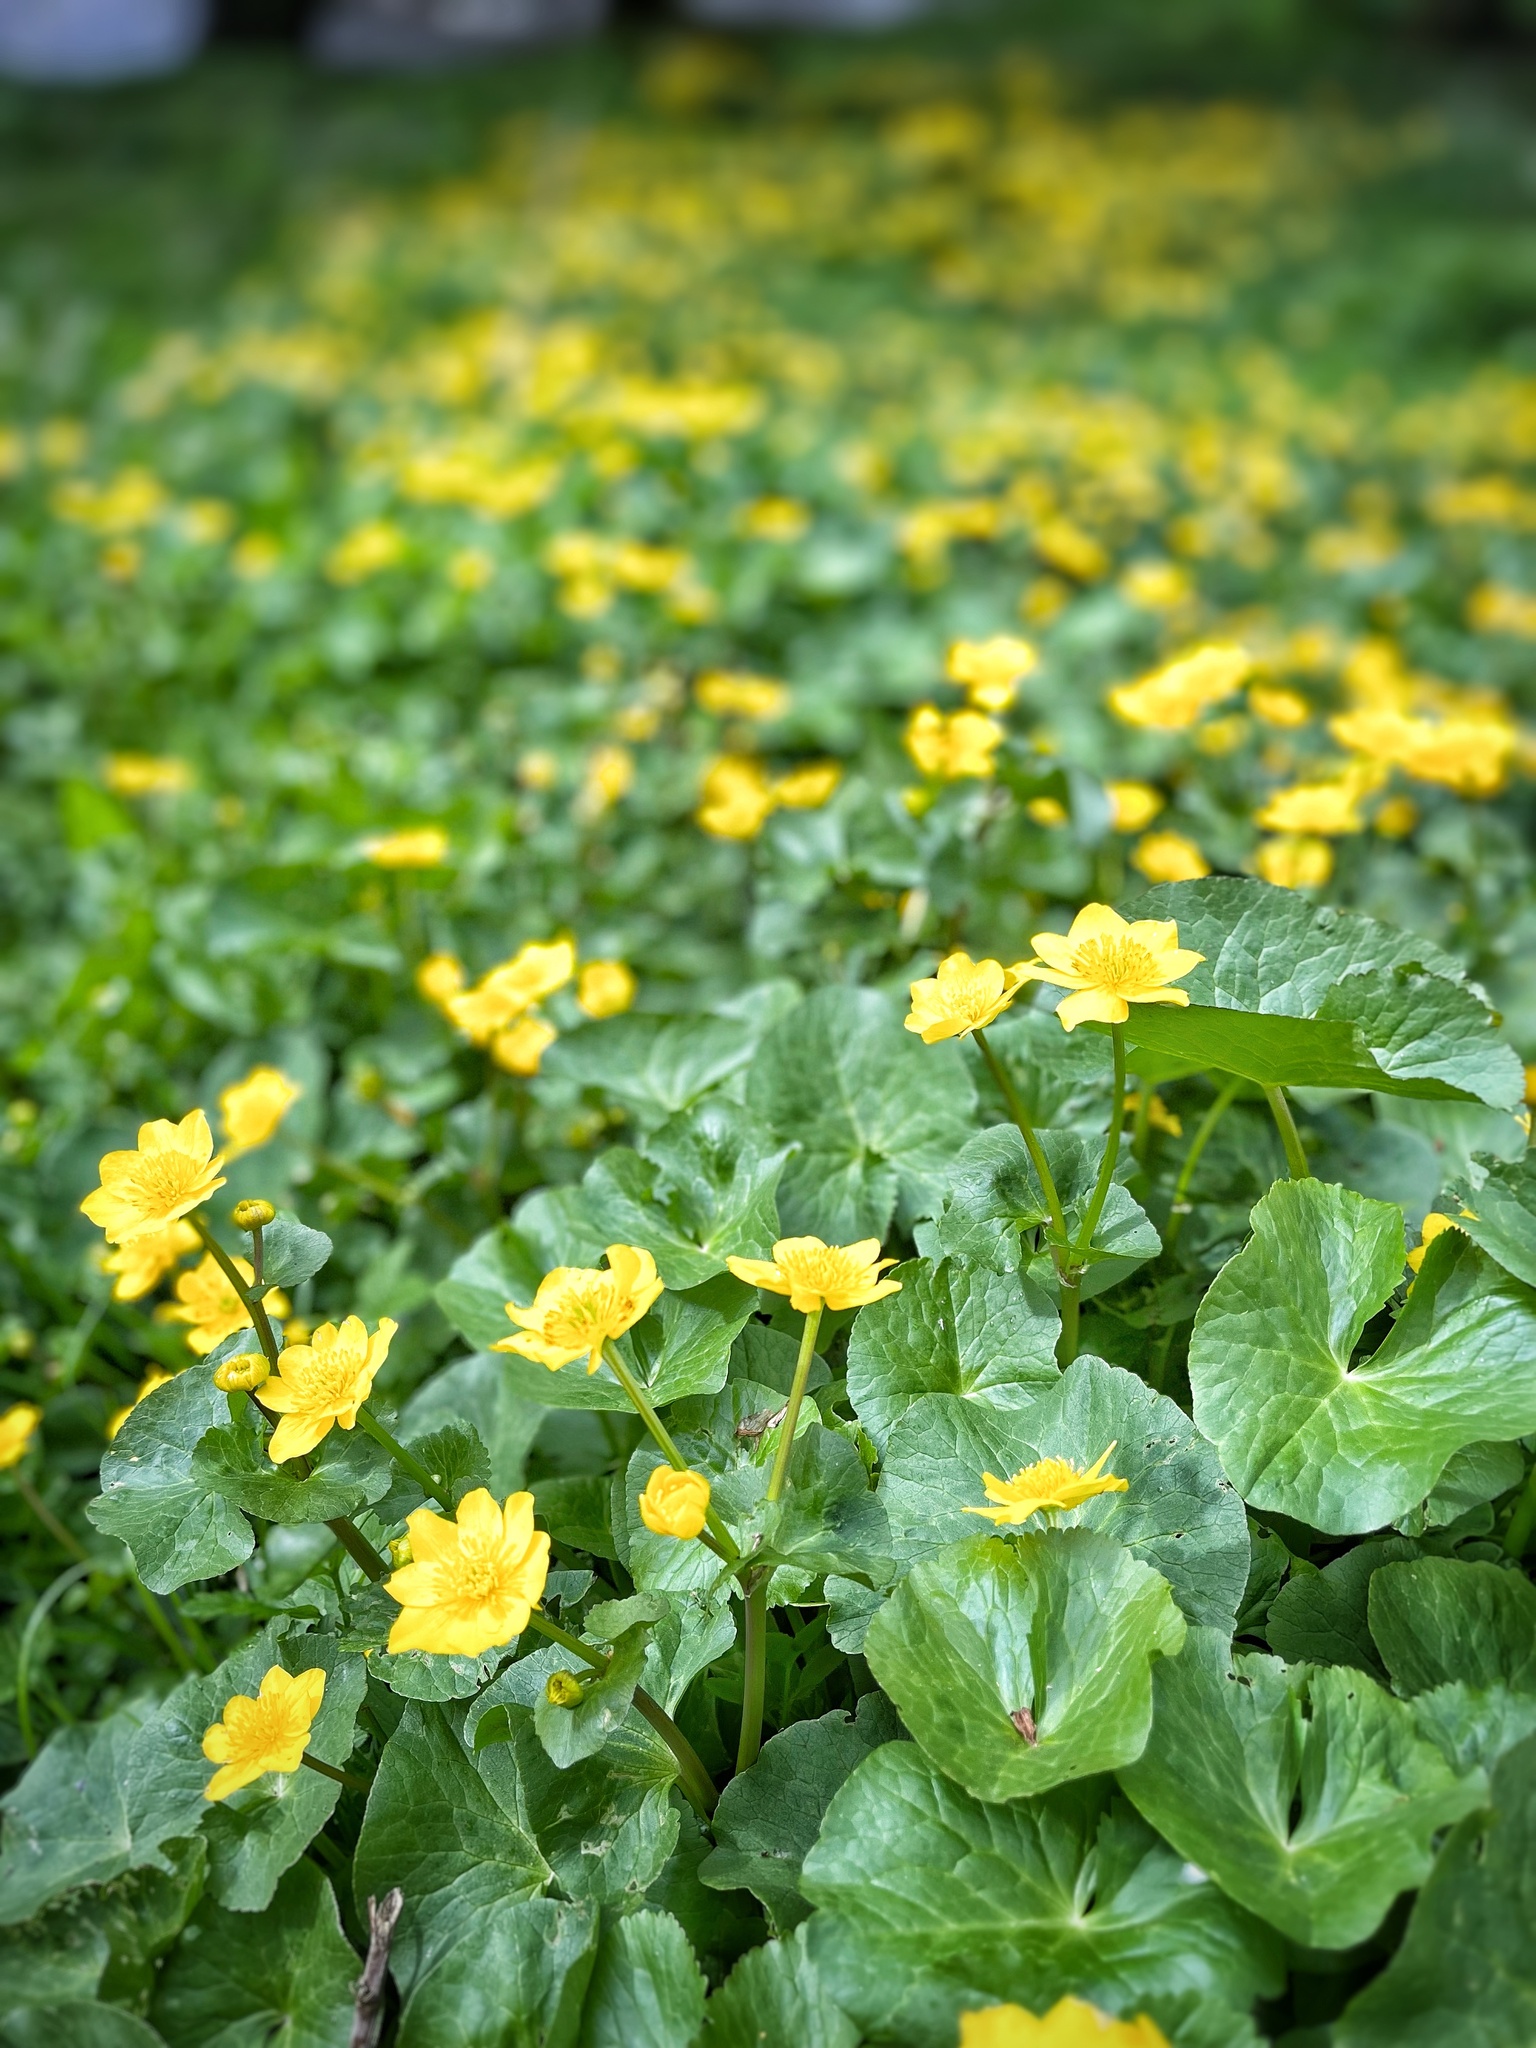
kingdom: Plantae
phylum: Tracheophyta
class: Magnoliopsida
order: Ranunculales
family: Ranunculaceae
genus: Caltha
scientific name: Caltha palustris
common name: Marsh marigold
